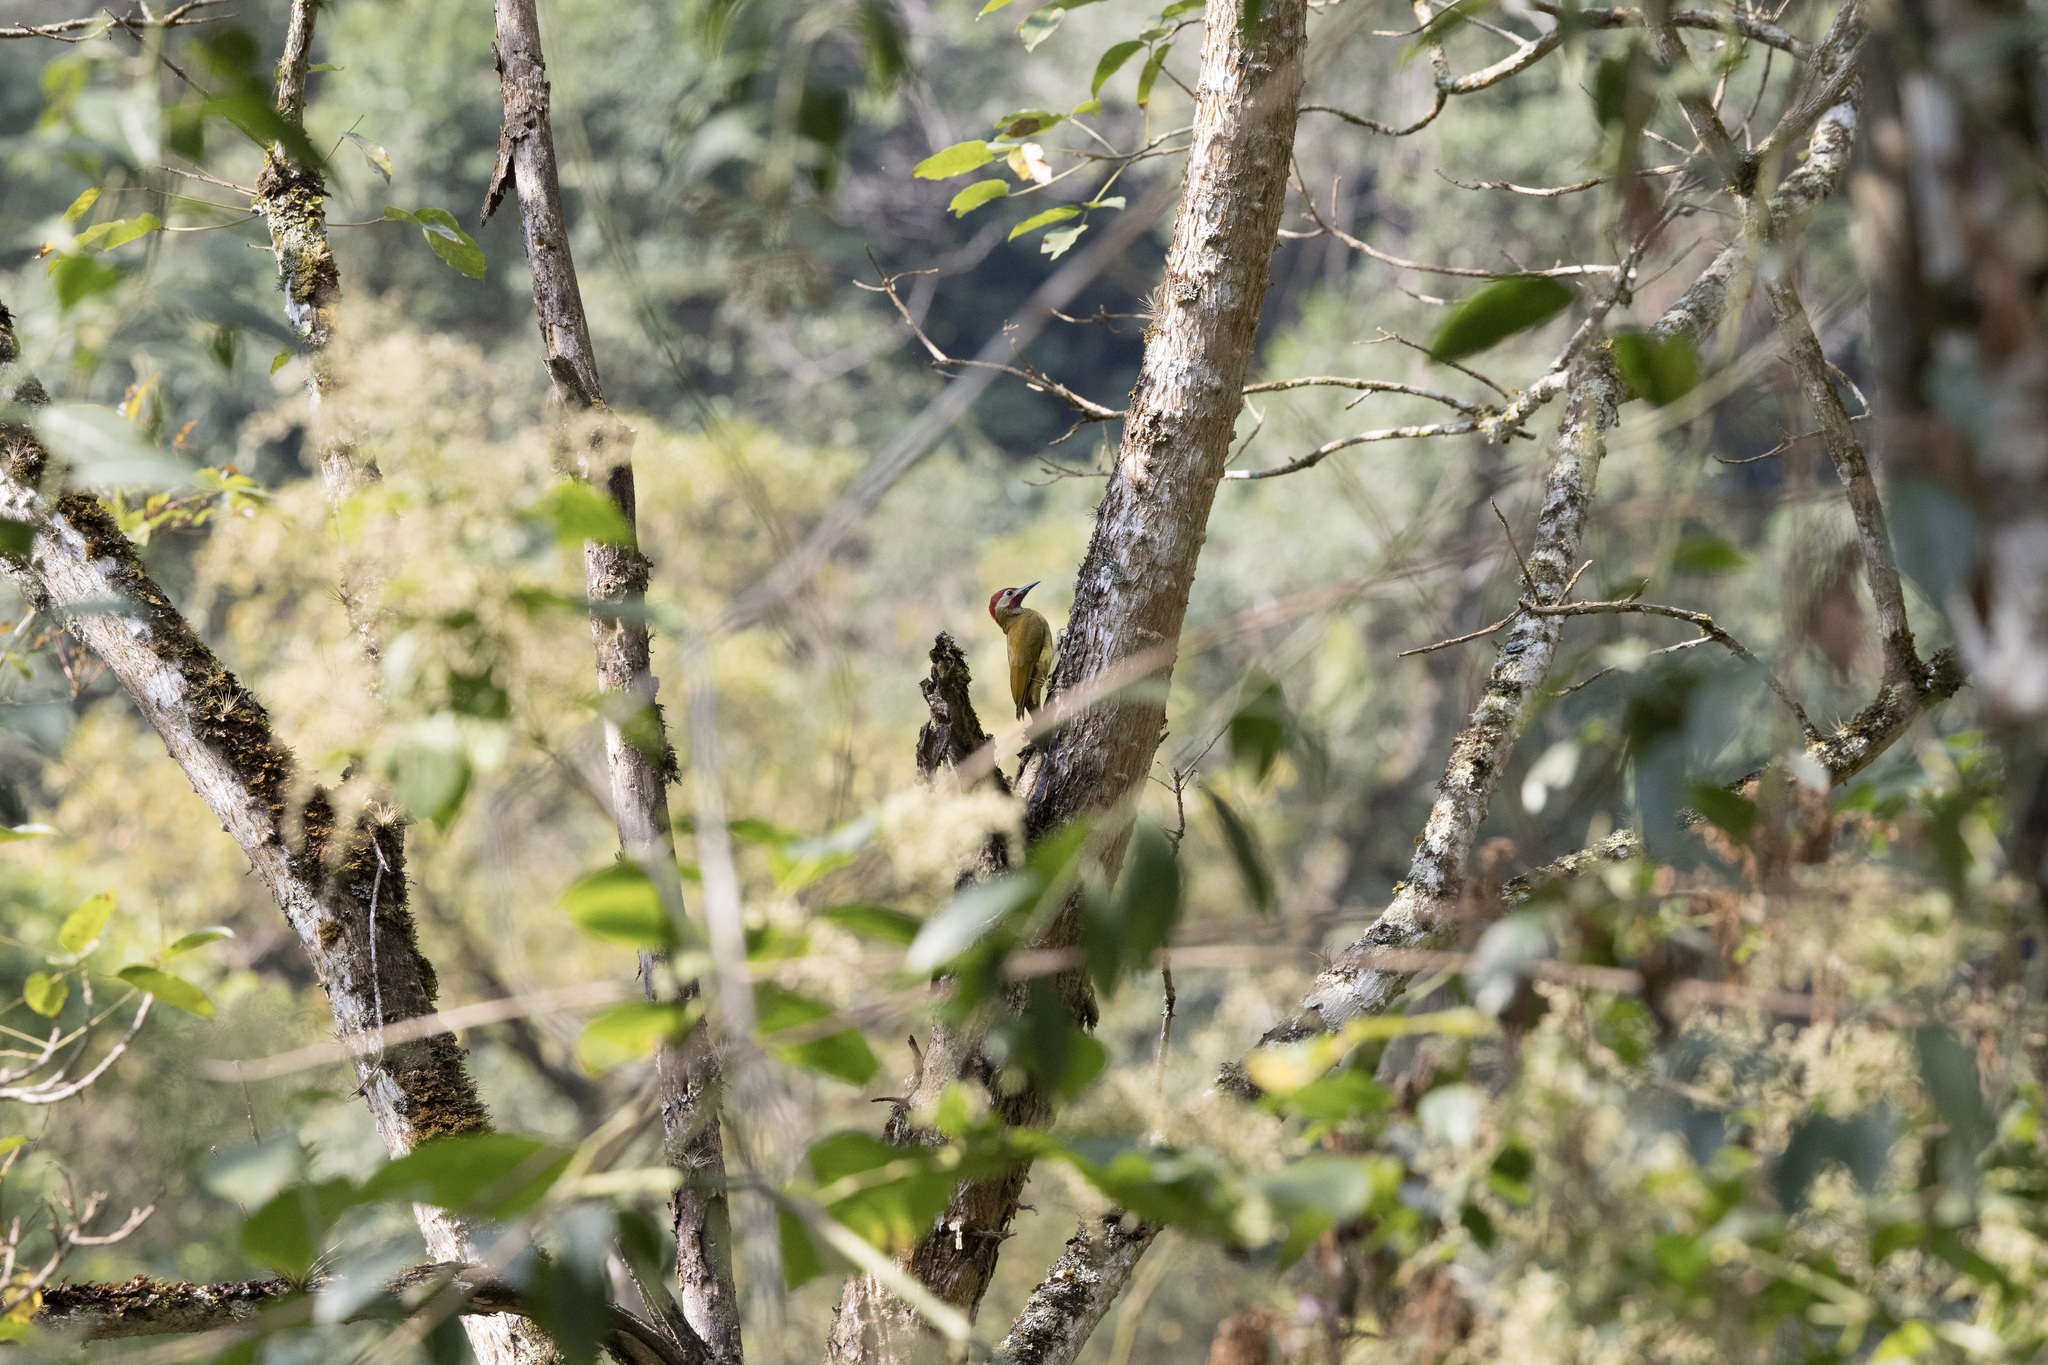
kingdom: Animalia
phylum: Chordata
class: Aves
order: Piciformes
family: Picidae
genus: Colaptes
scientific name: Colaptes rubiginosus
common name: Golden-olive woodpecker
